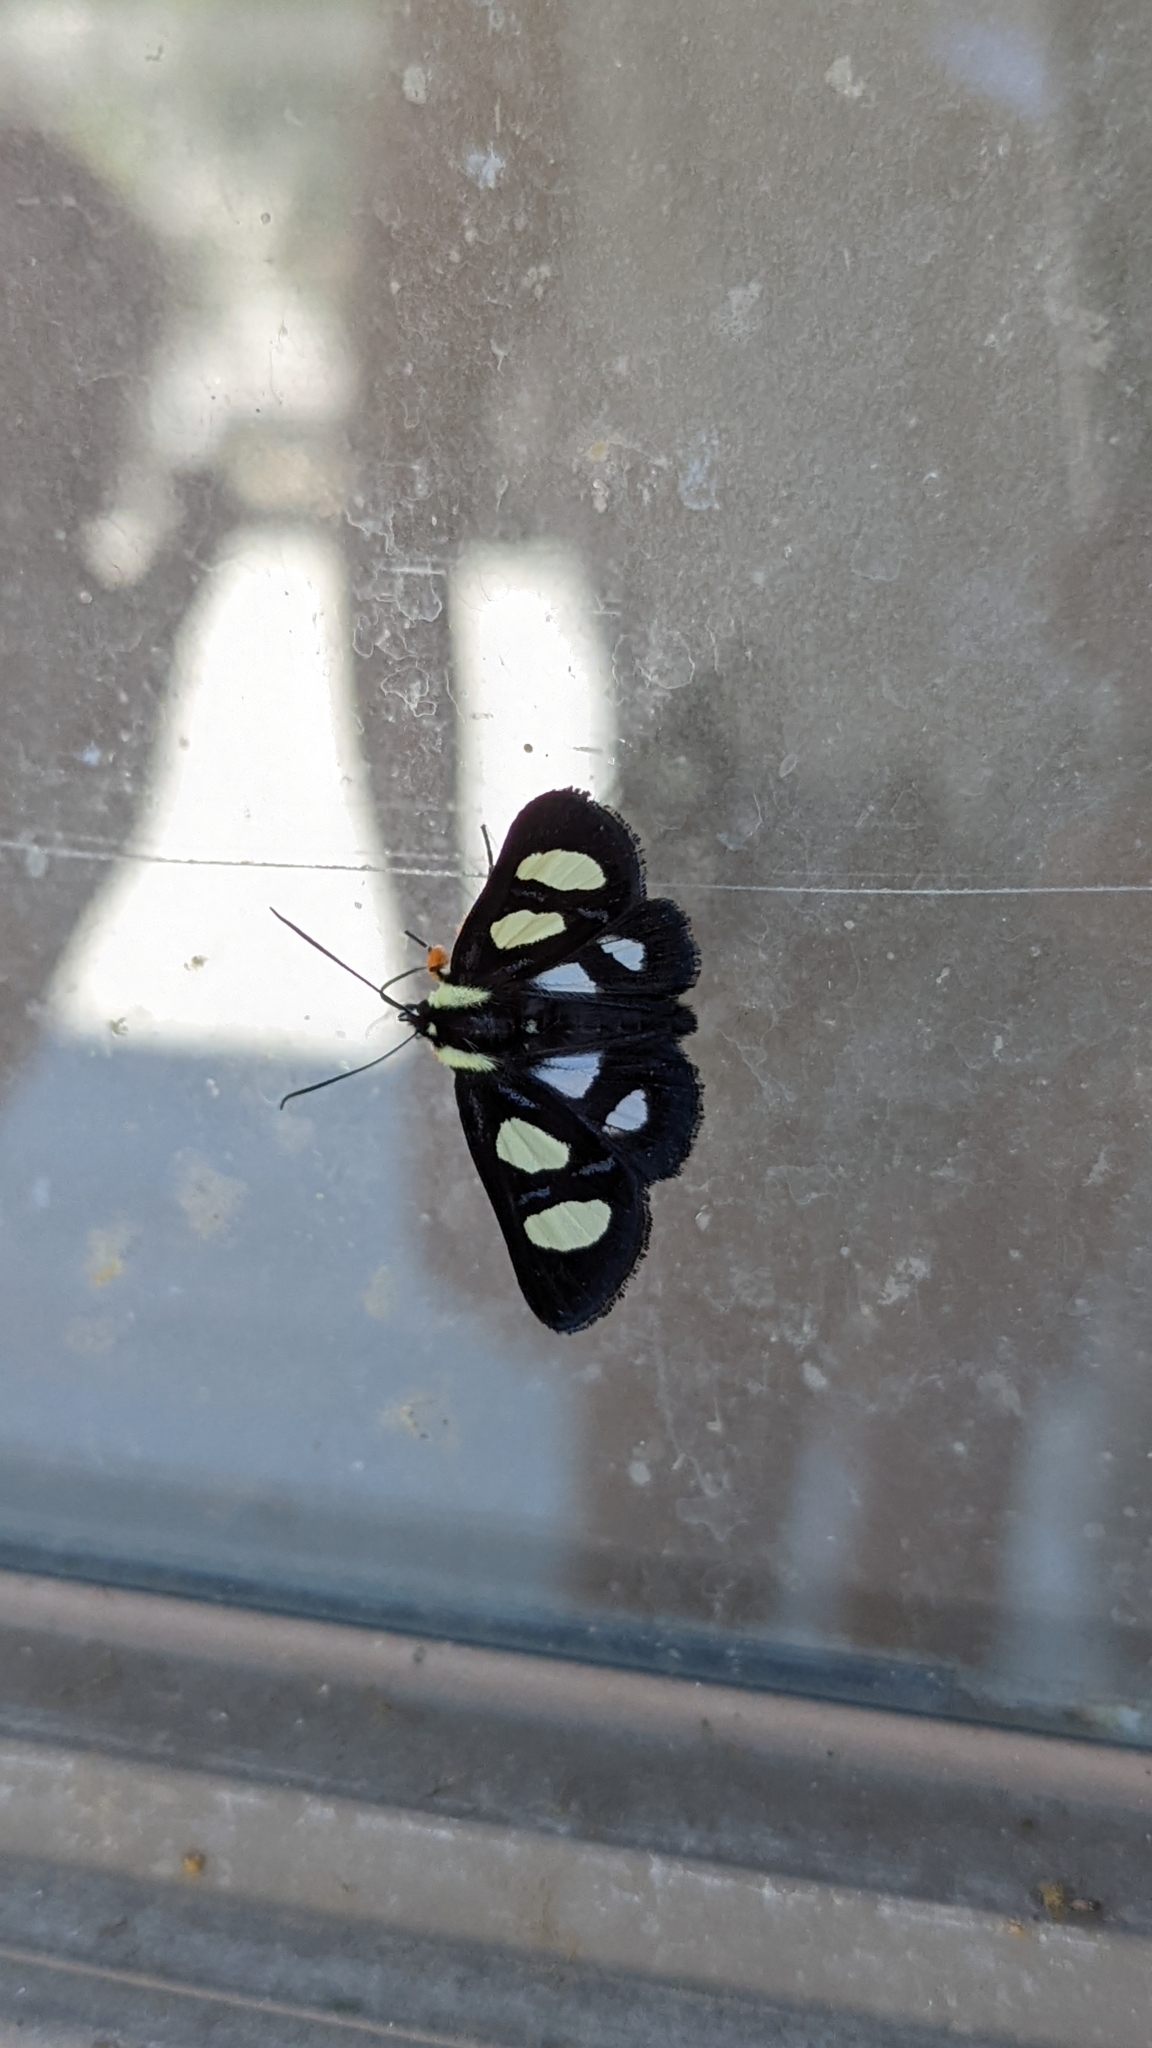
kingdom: Animalia
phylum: Arthropoda
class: Insecta
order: Lepidoptera
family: Noctuidae
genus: Alypia
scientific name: Alypia octomaculata
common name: Eight-spotted forester
